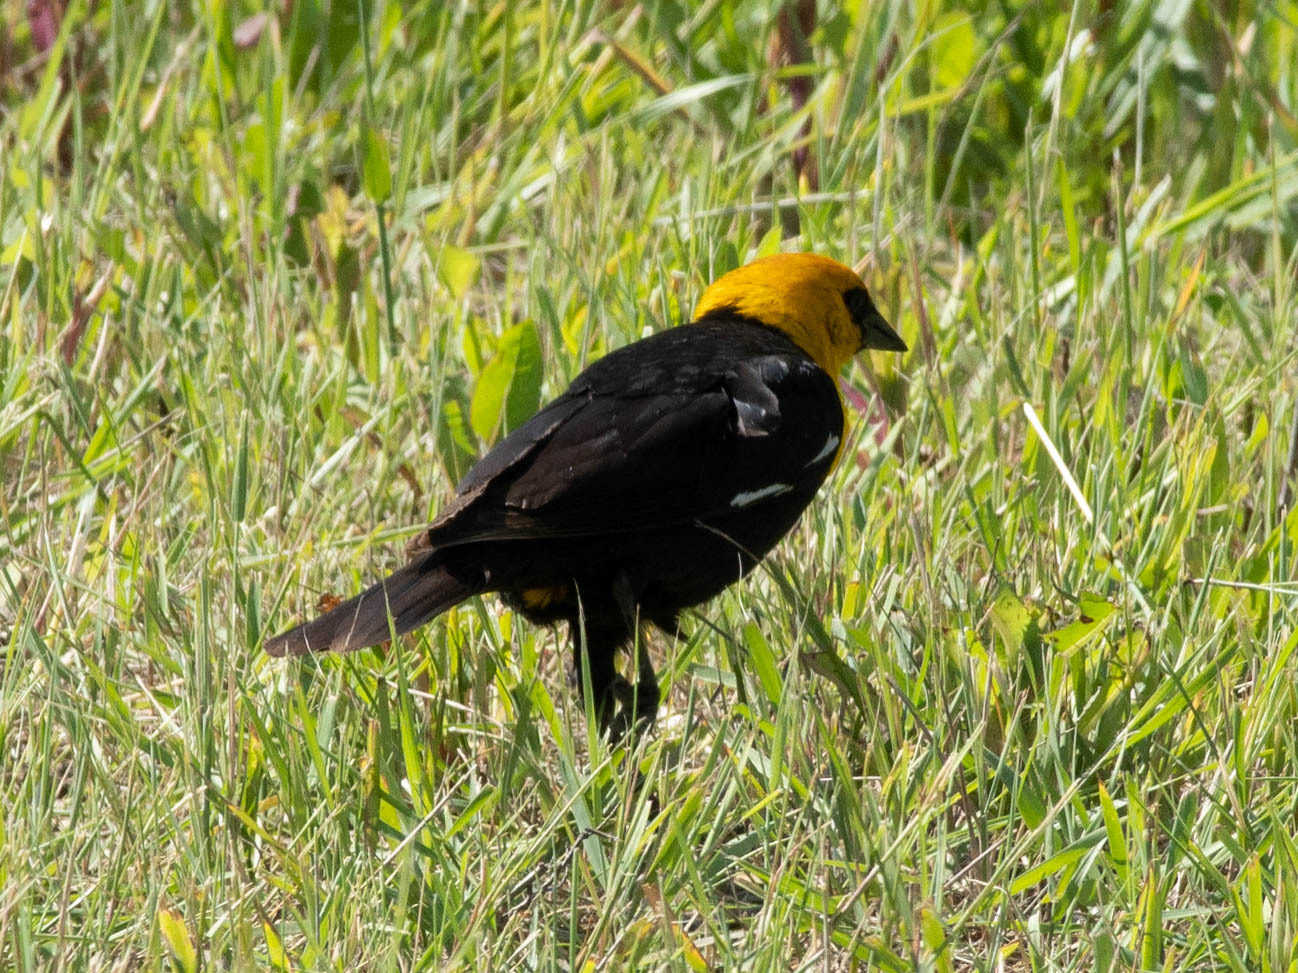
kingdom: Animalia
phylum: Chordata
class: Aves
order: Passeriformes
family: Icteridae
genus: Xanthocephalus
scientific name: Xanthocephalus xanthocephalus
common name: Yellow-headed blackbird
